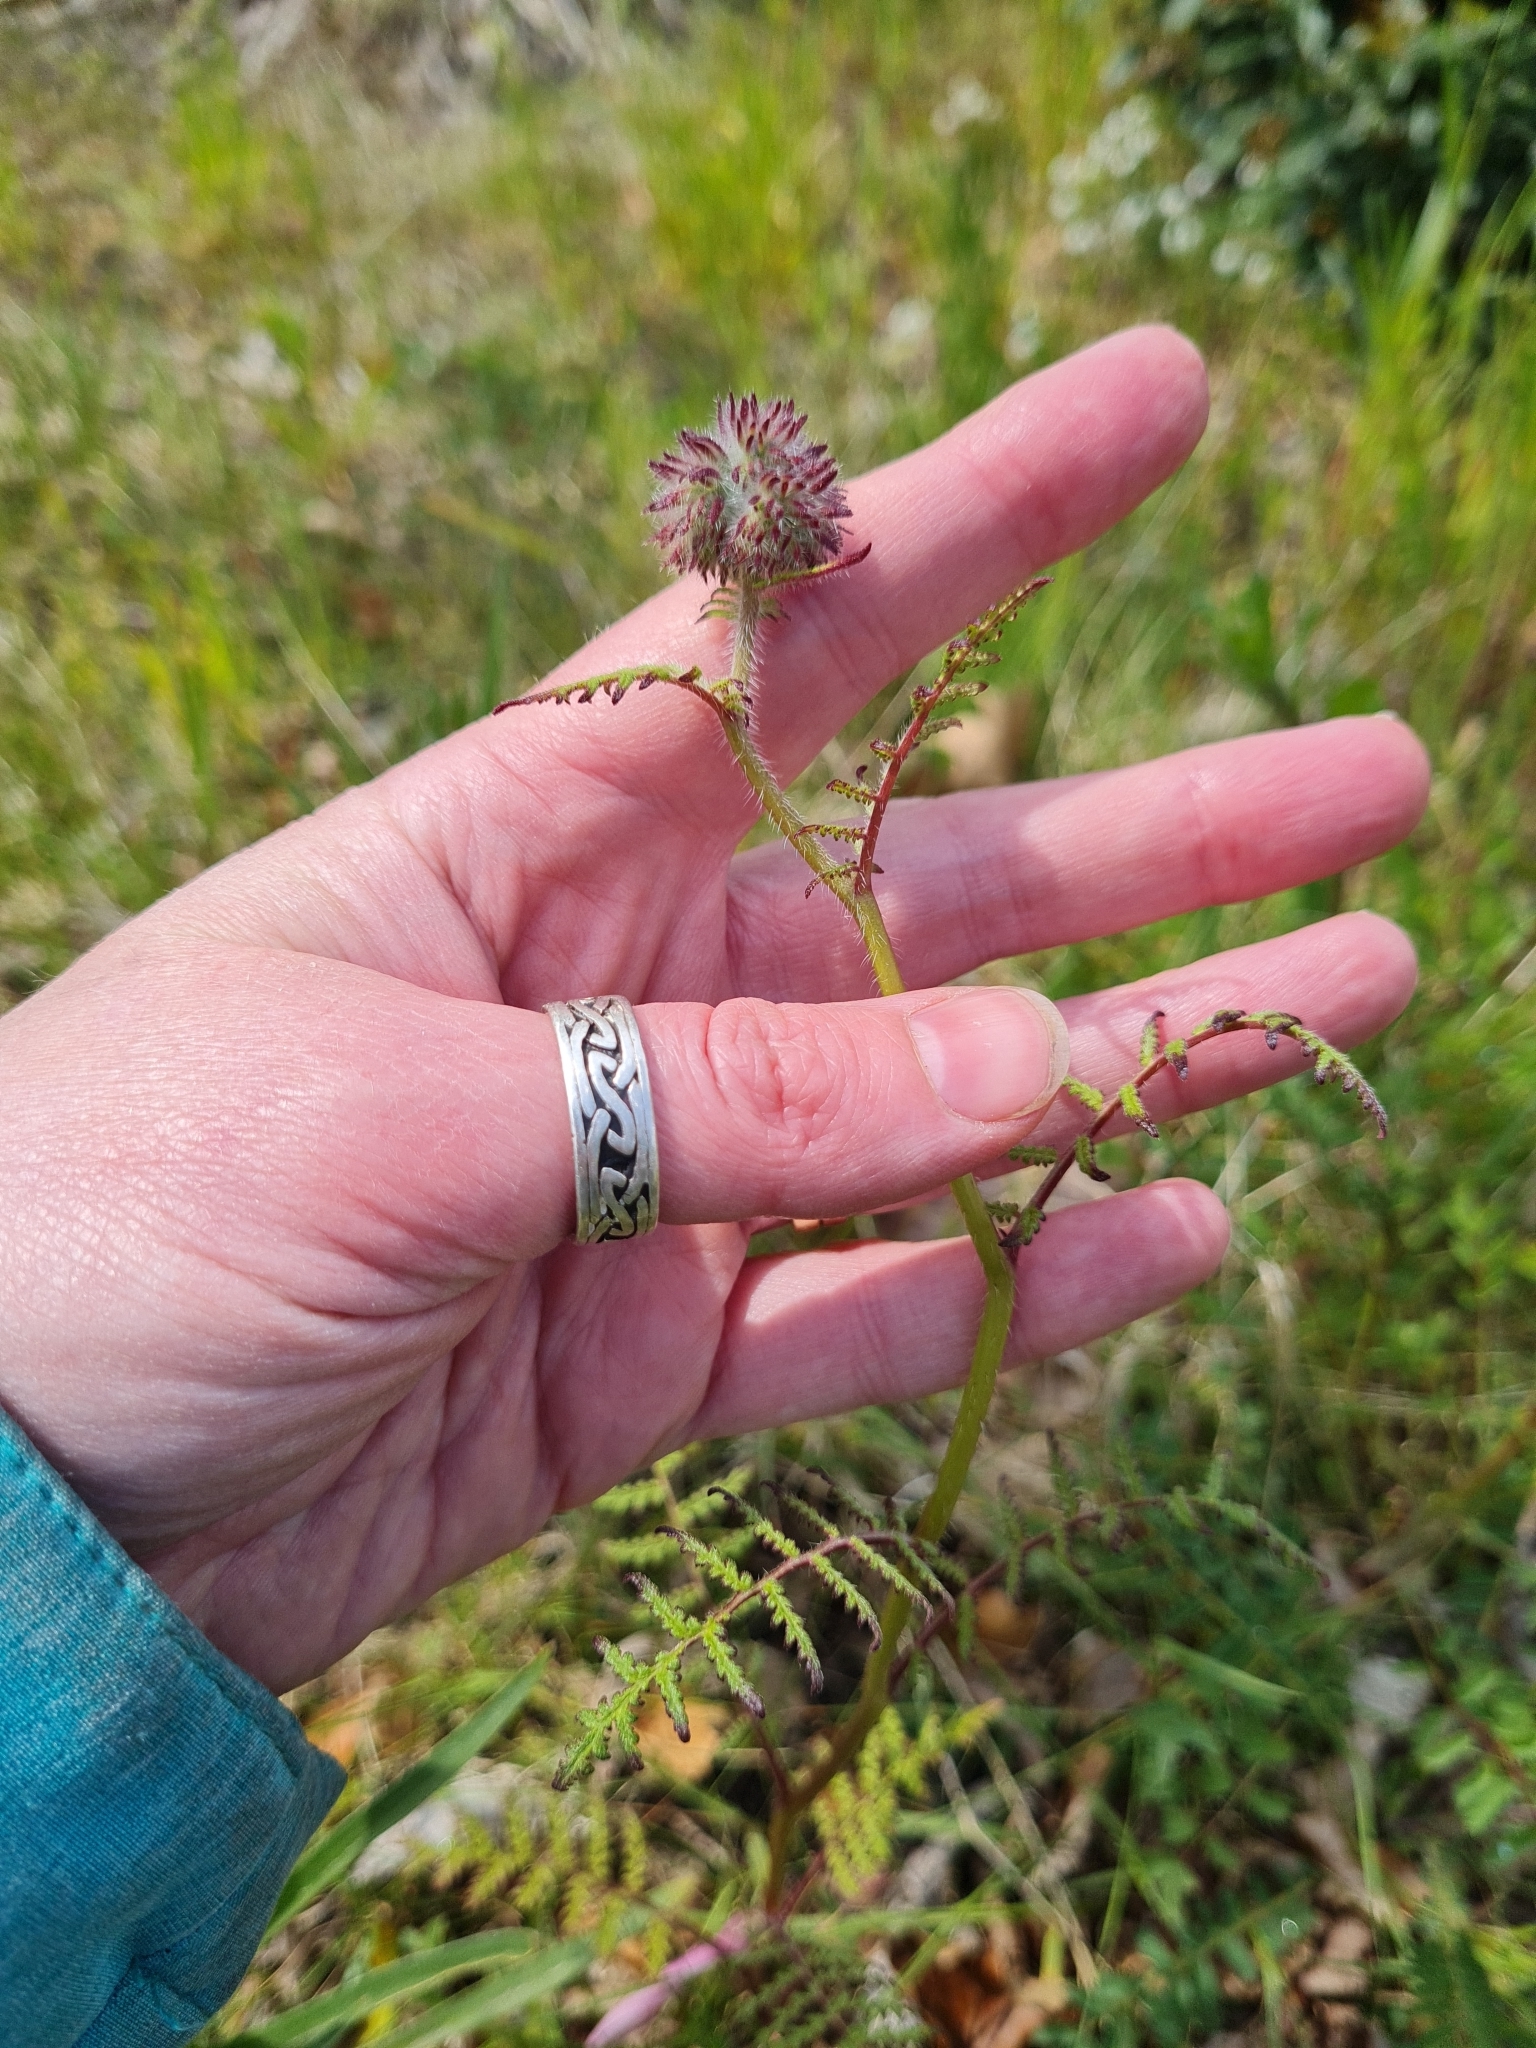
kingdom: Plantae
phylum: Tracheophyta
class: Magnoliopsida
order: Boraginales
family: Hydrophyllaceae
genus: Phacelia
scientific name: Phacelia tanacetifolia
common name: Phacelia
